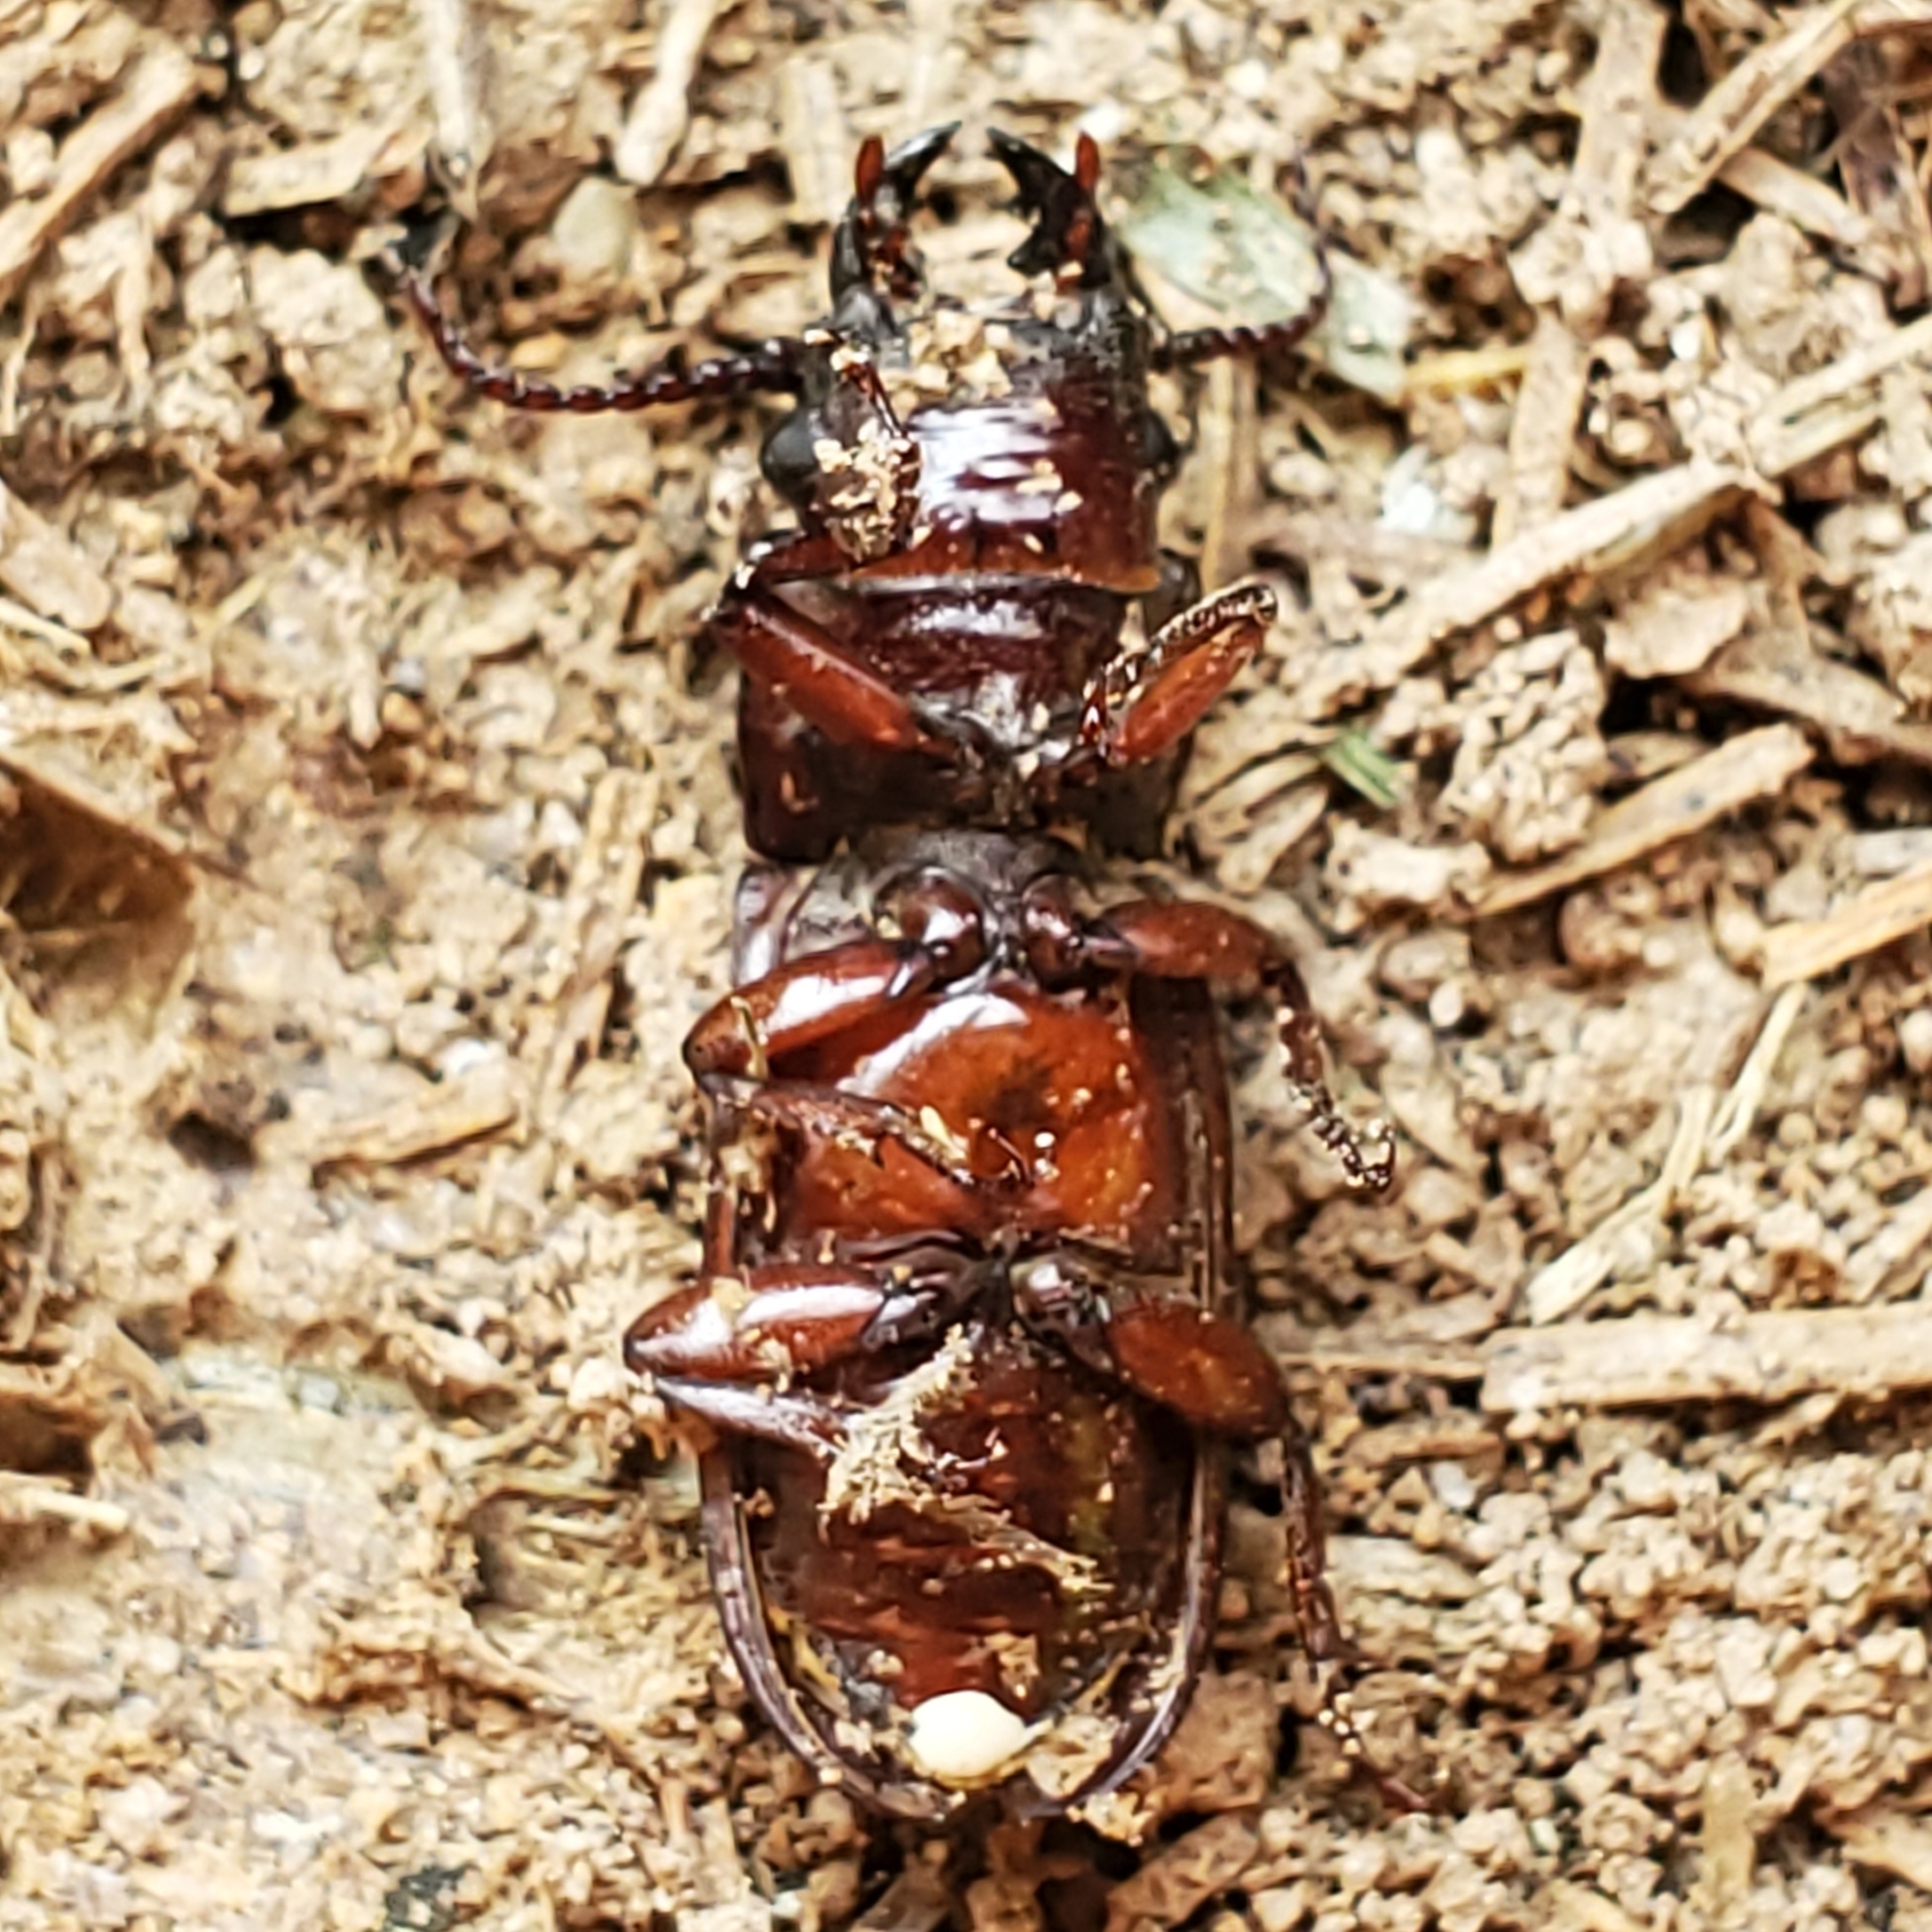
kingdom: Animalia
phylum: Arthropoda
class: Insecta
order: Coleoptera
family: Cerambycidae
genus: Neandra
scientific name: Neandra brunnea
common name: Pole borer
